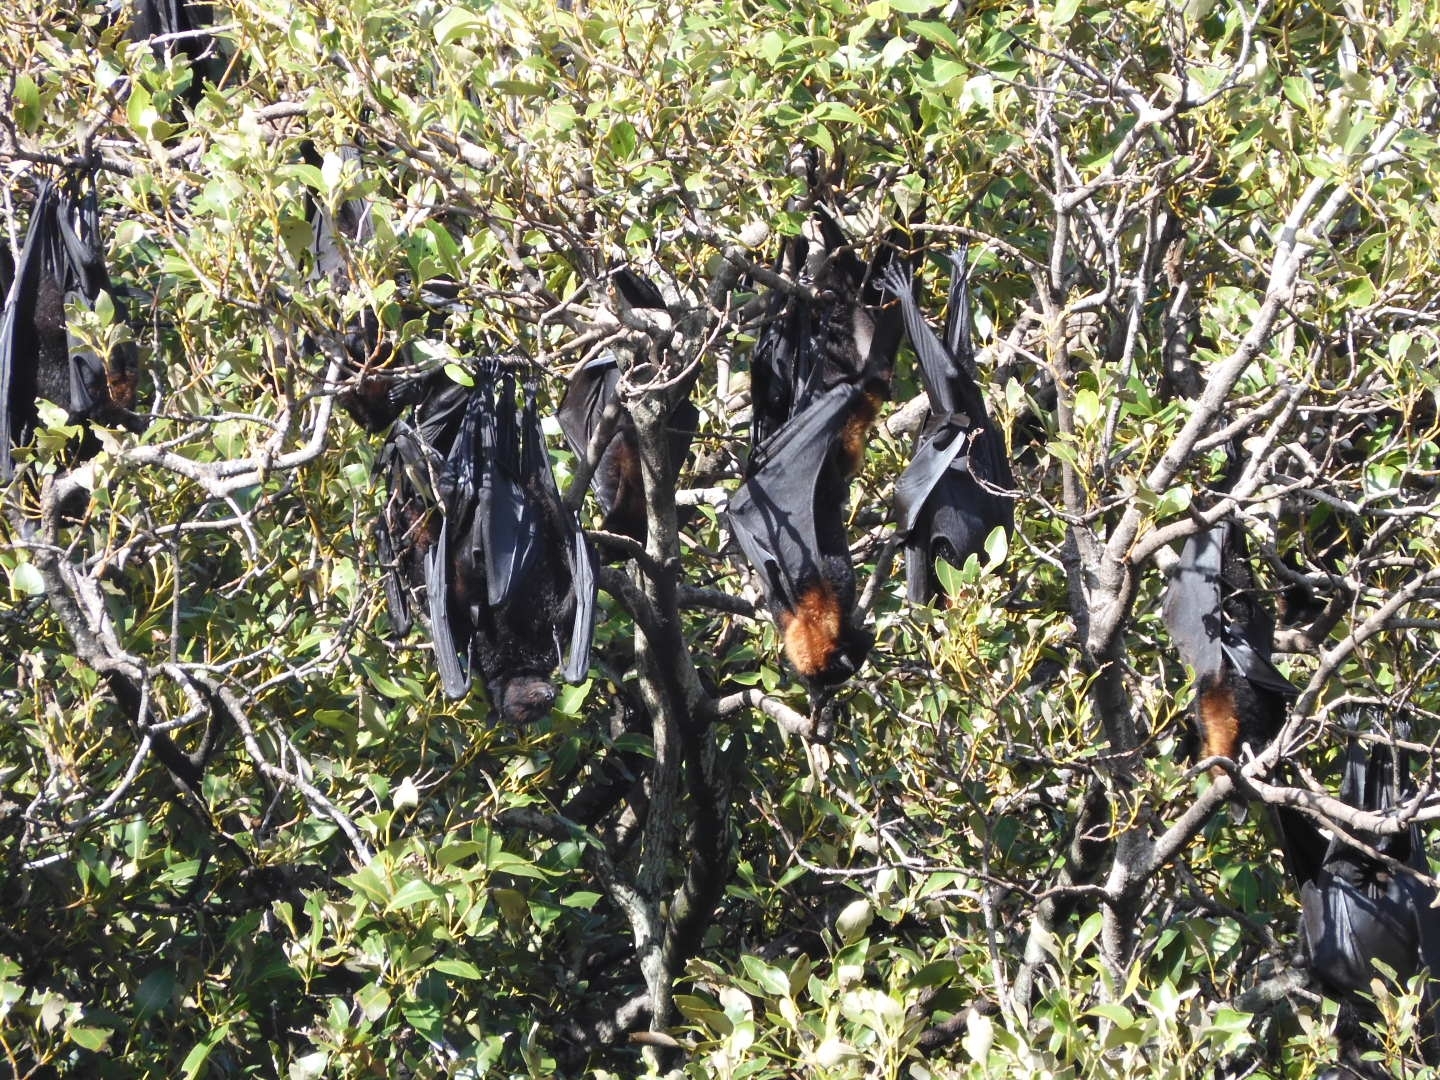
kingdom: Animalia
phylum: Chordata
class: Mammalia
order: Chiroptera
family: Pteropodidae
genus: Pteropus
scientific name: Pteropus alecto
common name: Black flying fox
